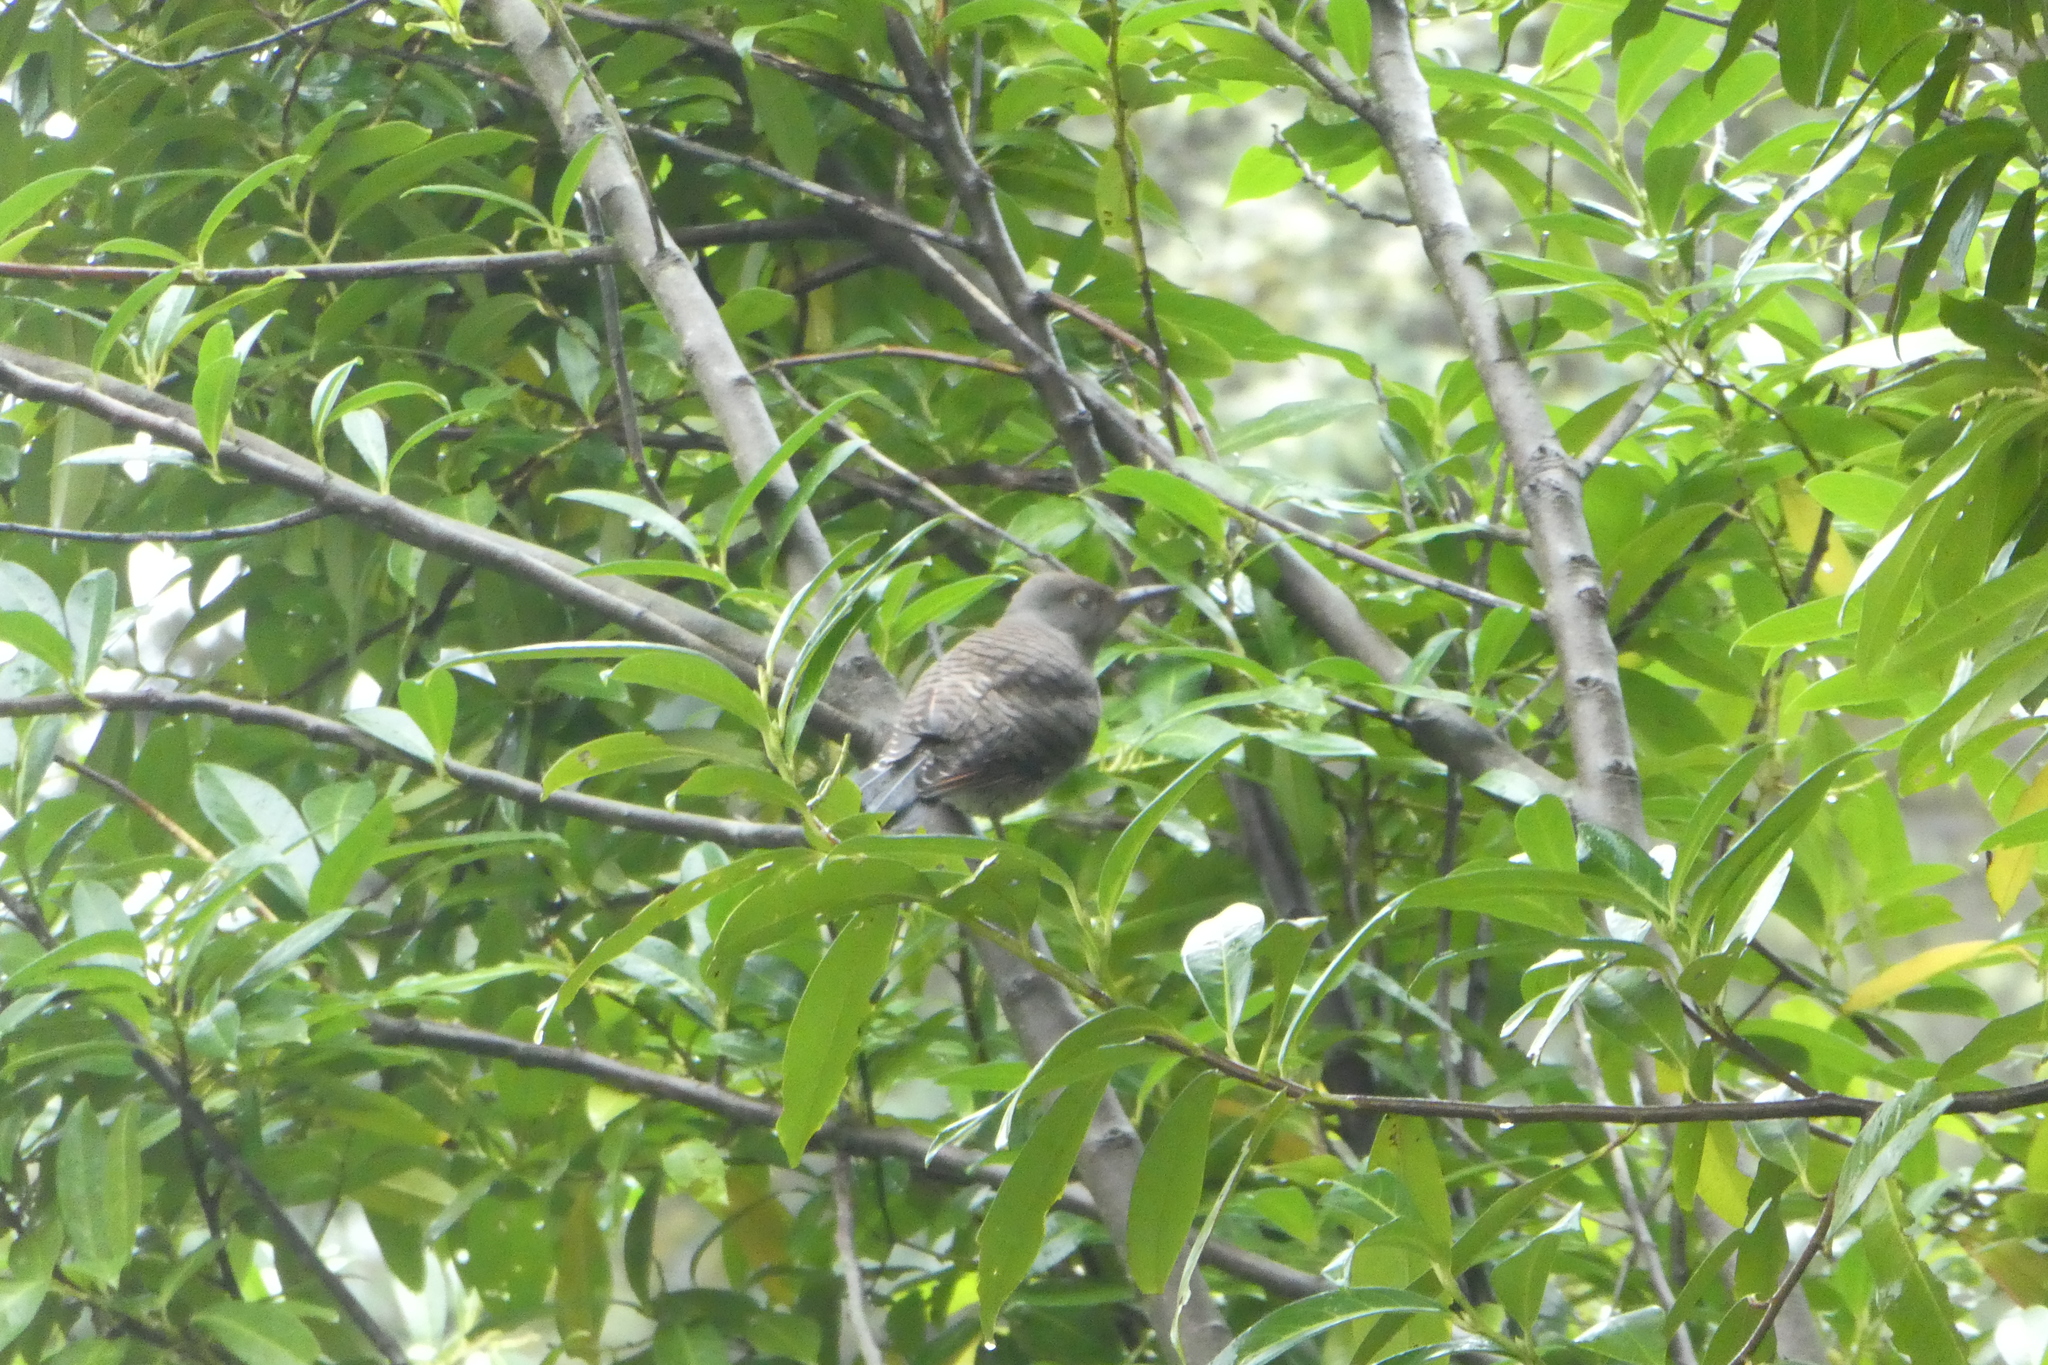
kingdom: Animalia
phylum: Chordata
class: Aves
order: Piciformes
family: Picidae
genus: Colaptes
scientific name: Colaptes auratus
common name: Northern flicker
